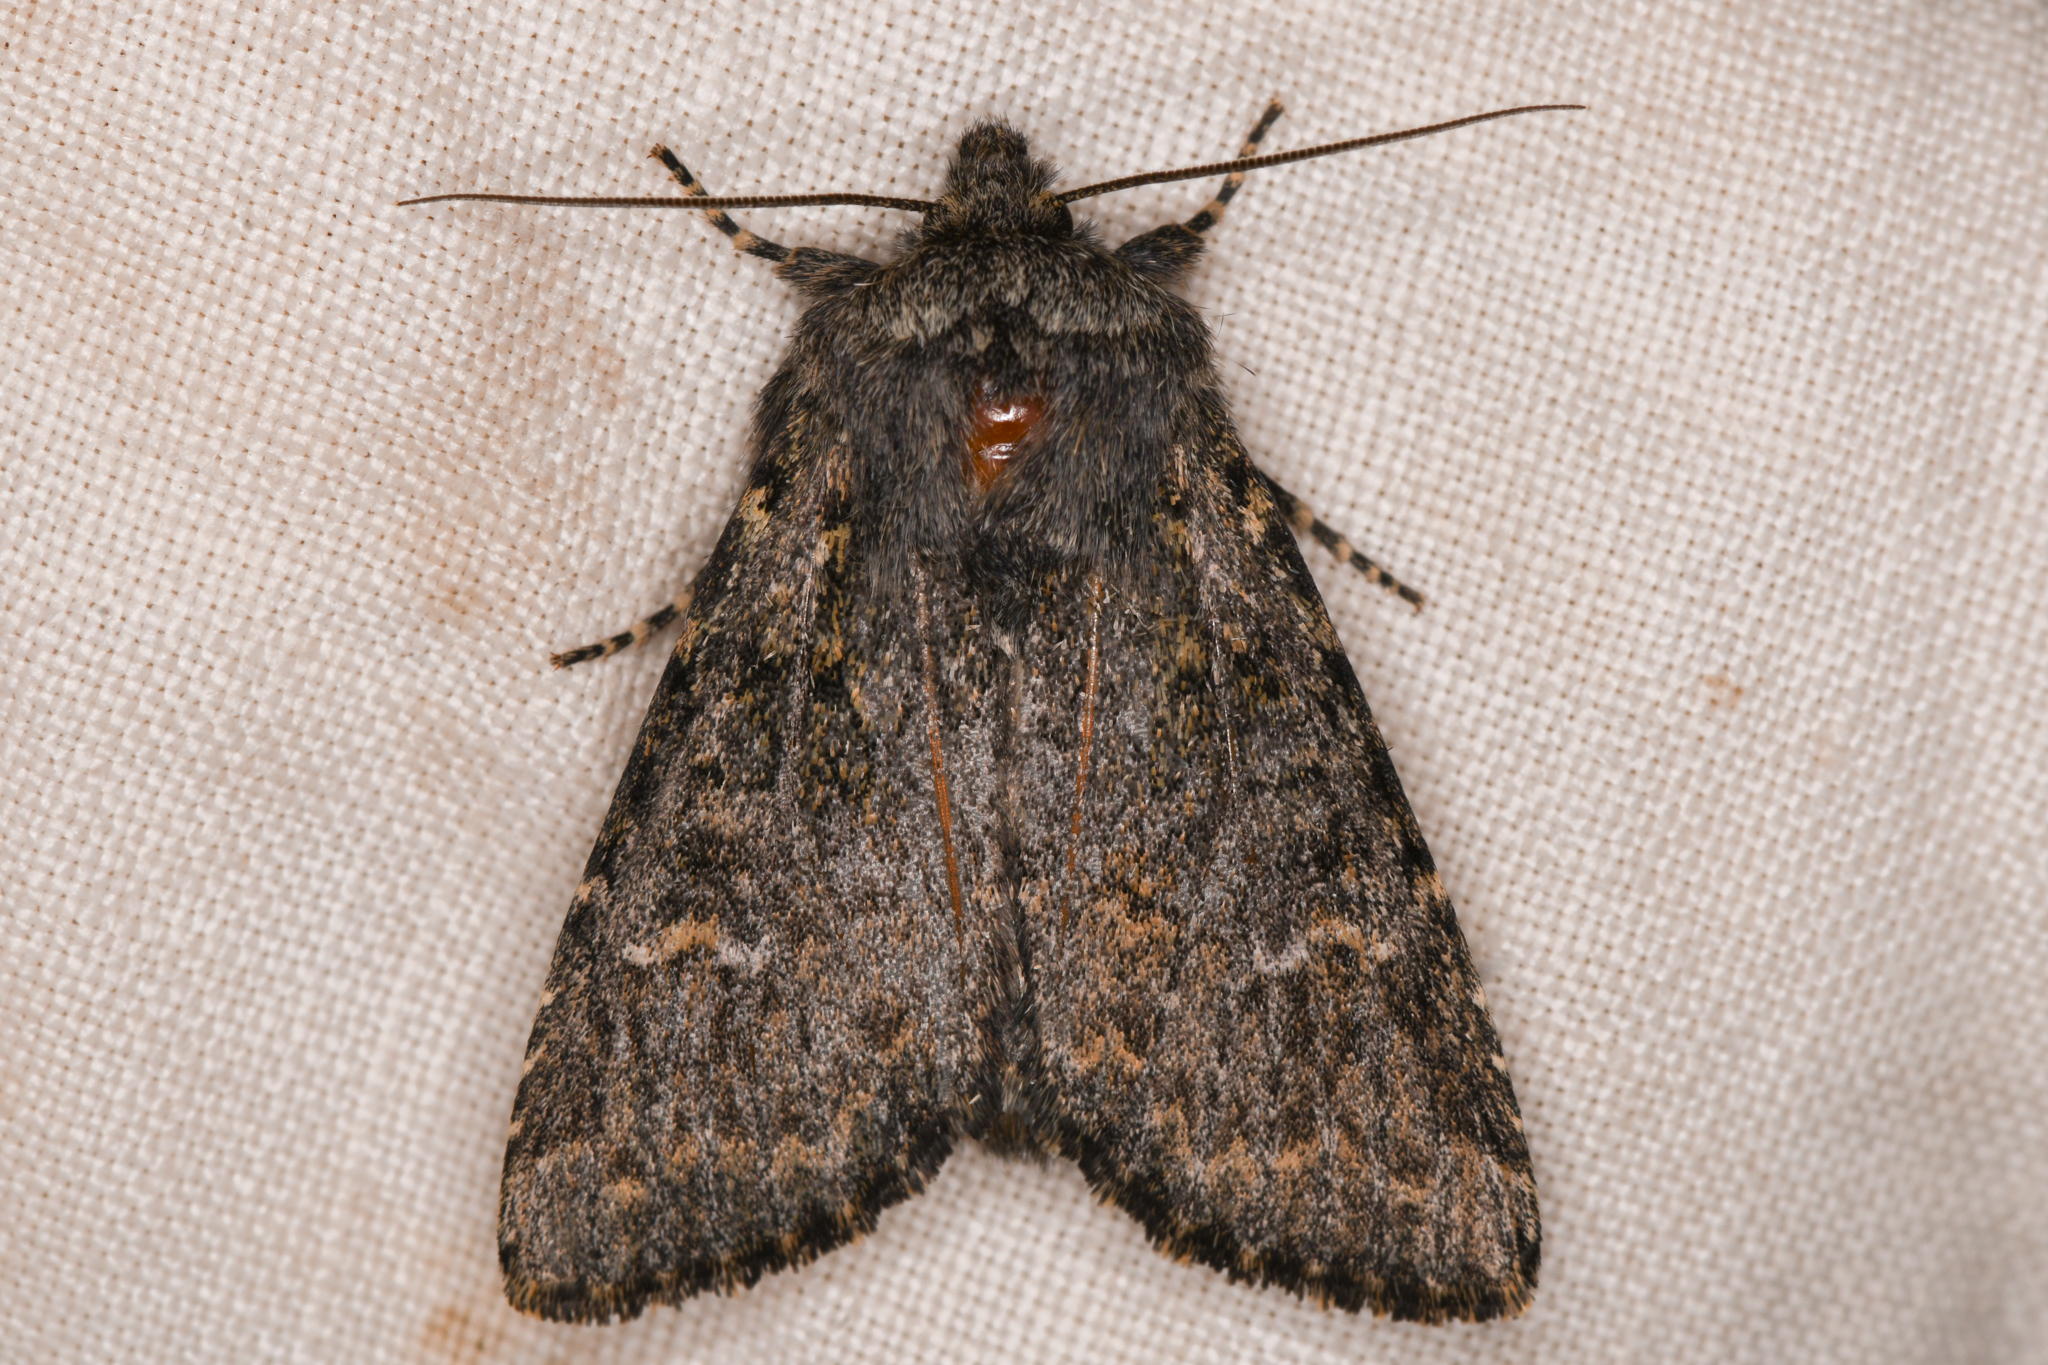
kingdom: Animalia
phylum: Arthropoda
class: Insecta
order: Lepidoptera
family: Noctuidae
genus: Apamea
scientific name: Apamea zeta
